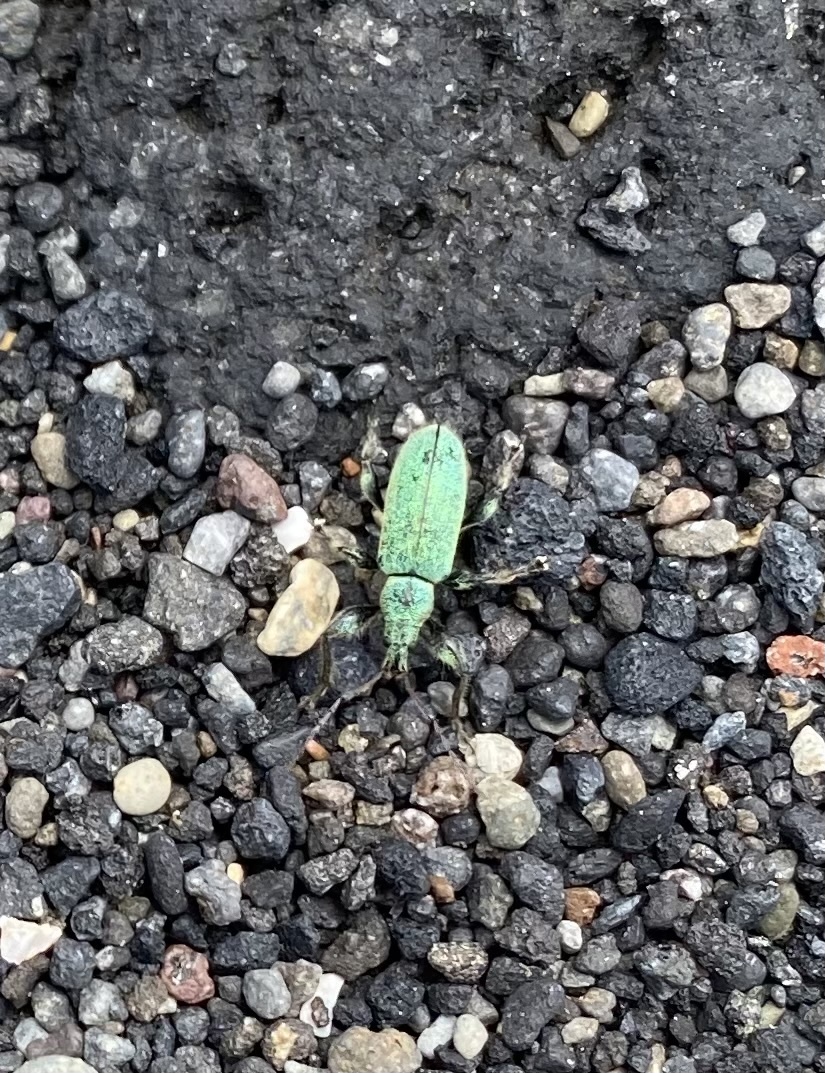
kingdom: Animalia
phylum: Arthropoda
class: Insecta
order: Coleoptera
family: Curculionidae
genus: Phyllobius
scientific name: Phyllobius armatus
